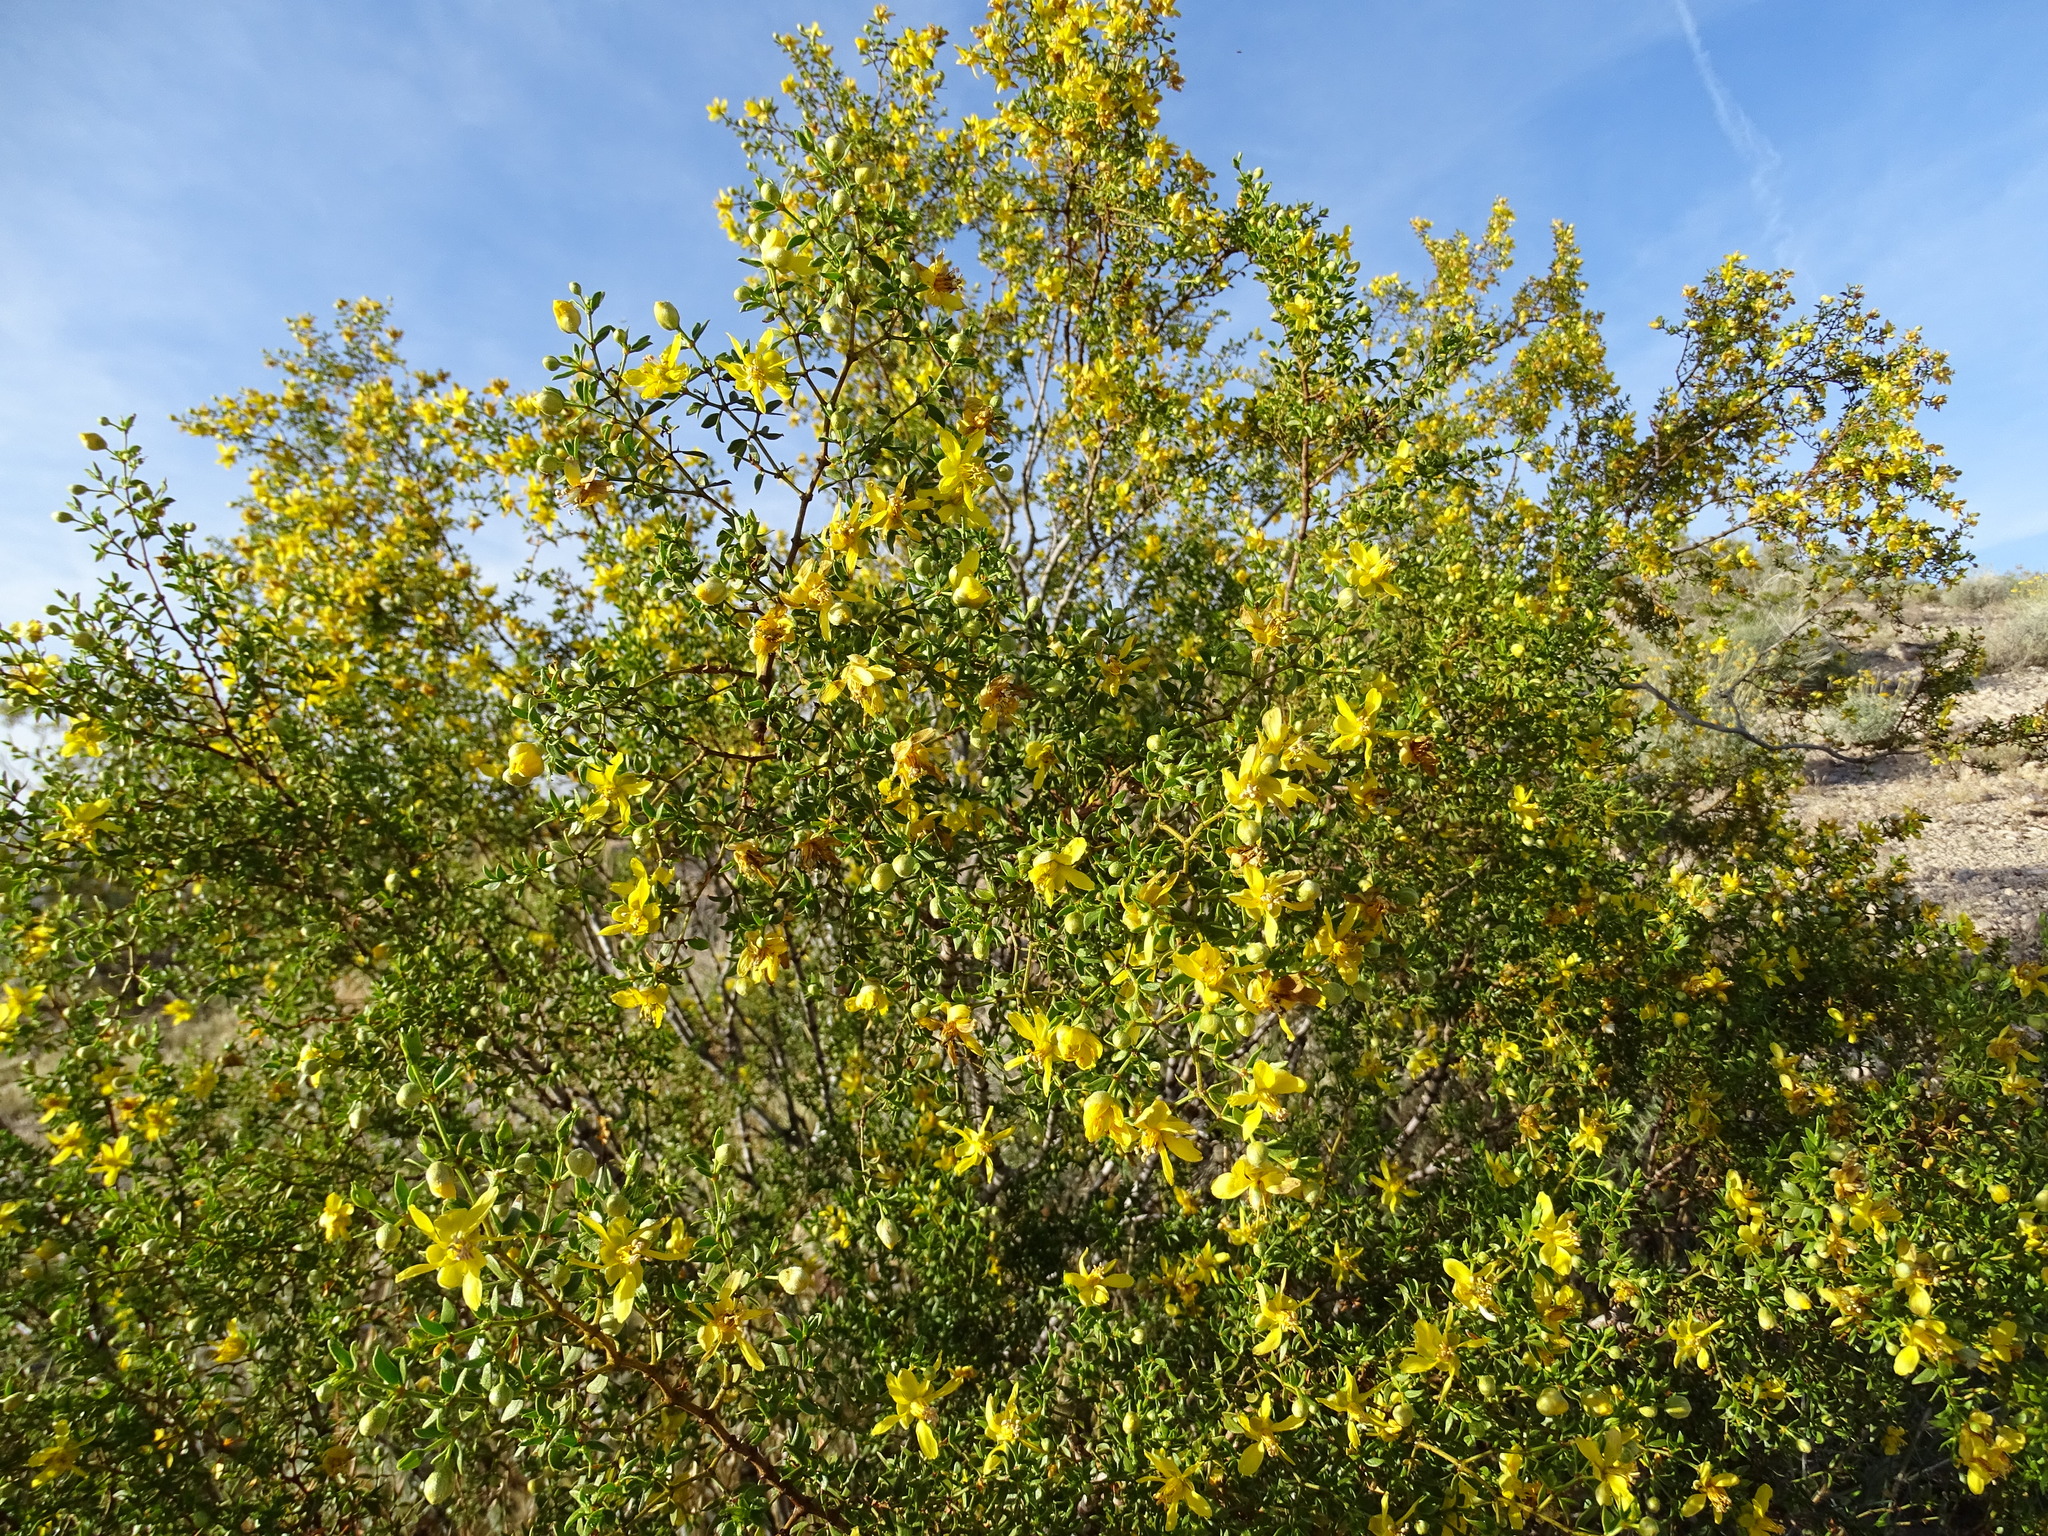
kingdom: Plantae
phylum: Tracheophyta
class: Magnoliopsida
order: Zygophyllales
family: Zygophyllaceae
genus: Larrea
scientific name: Larrea tridentata
